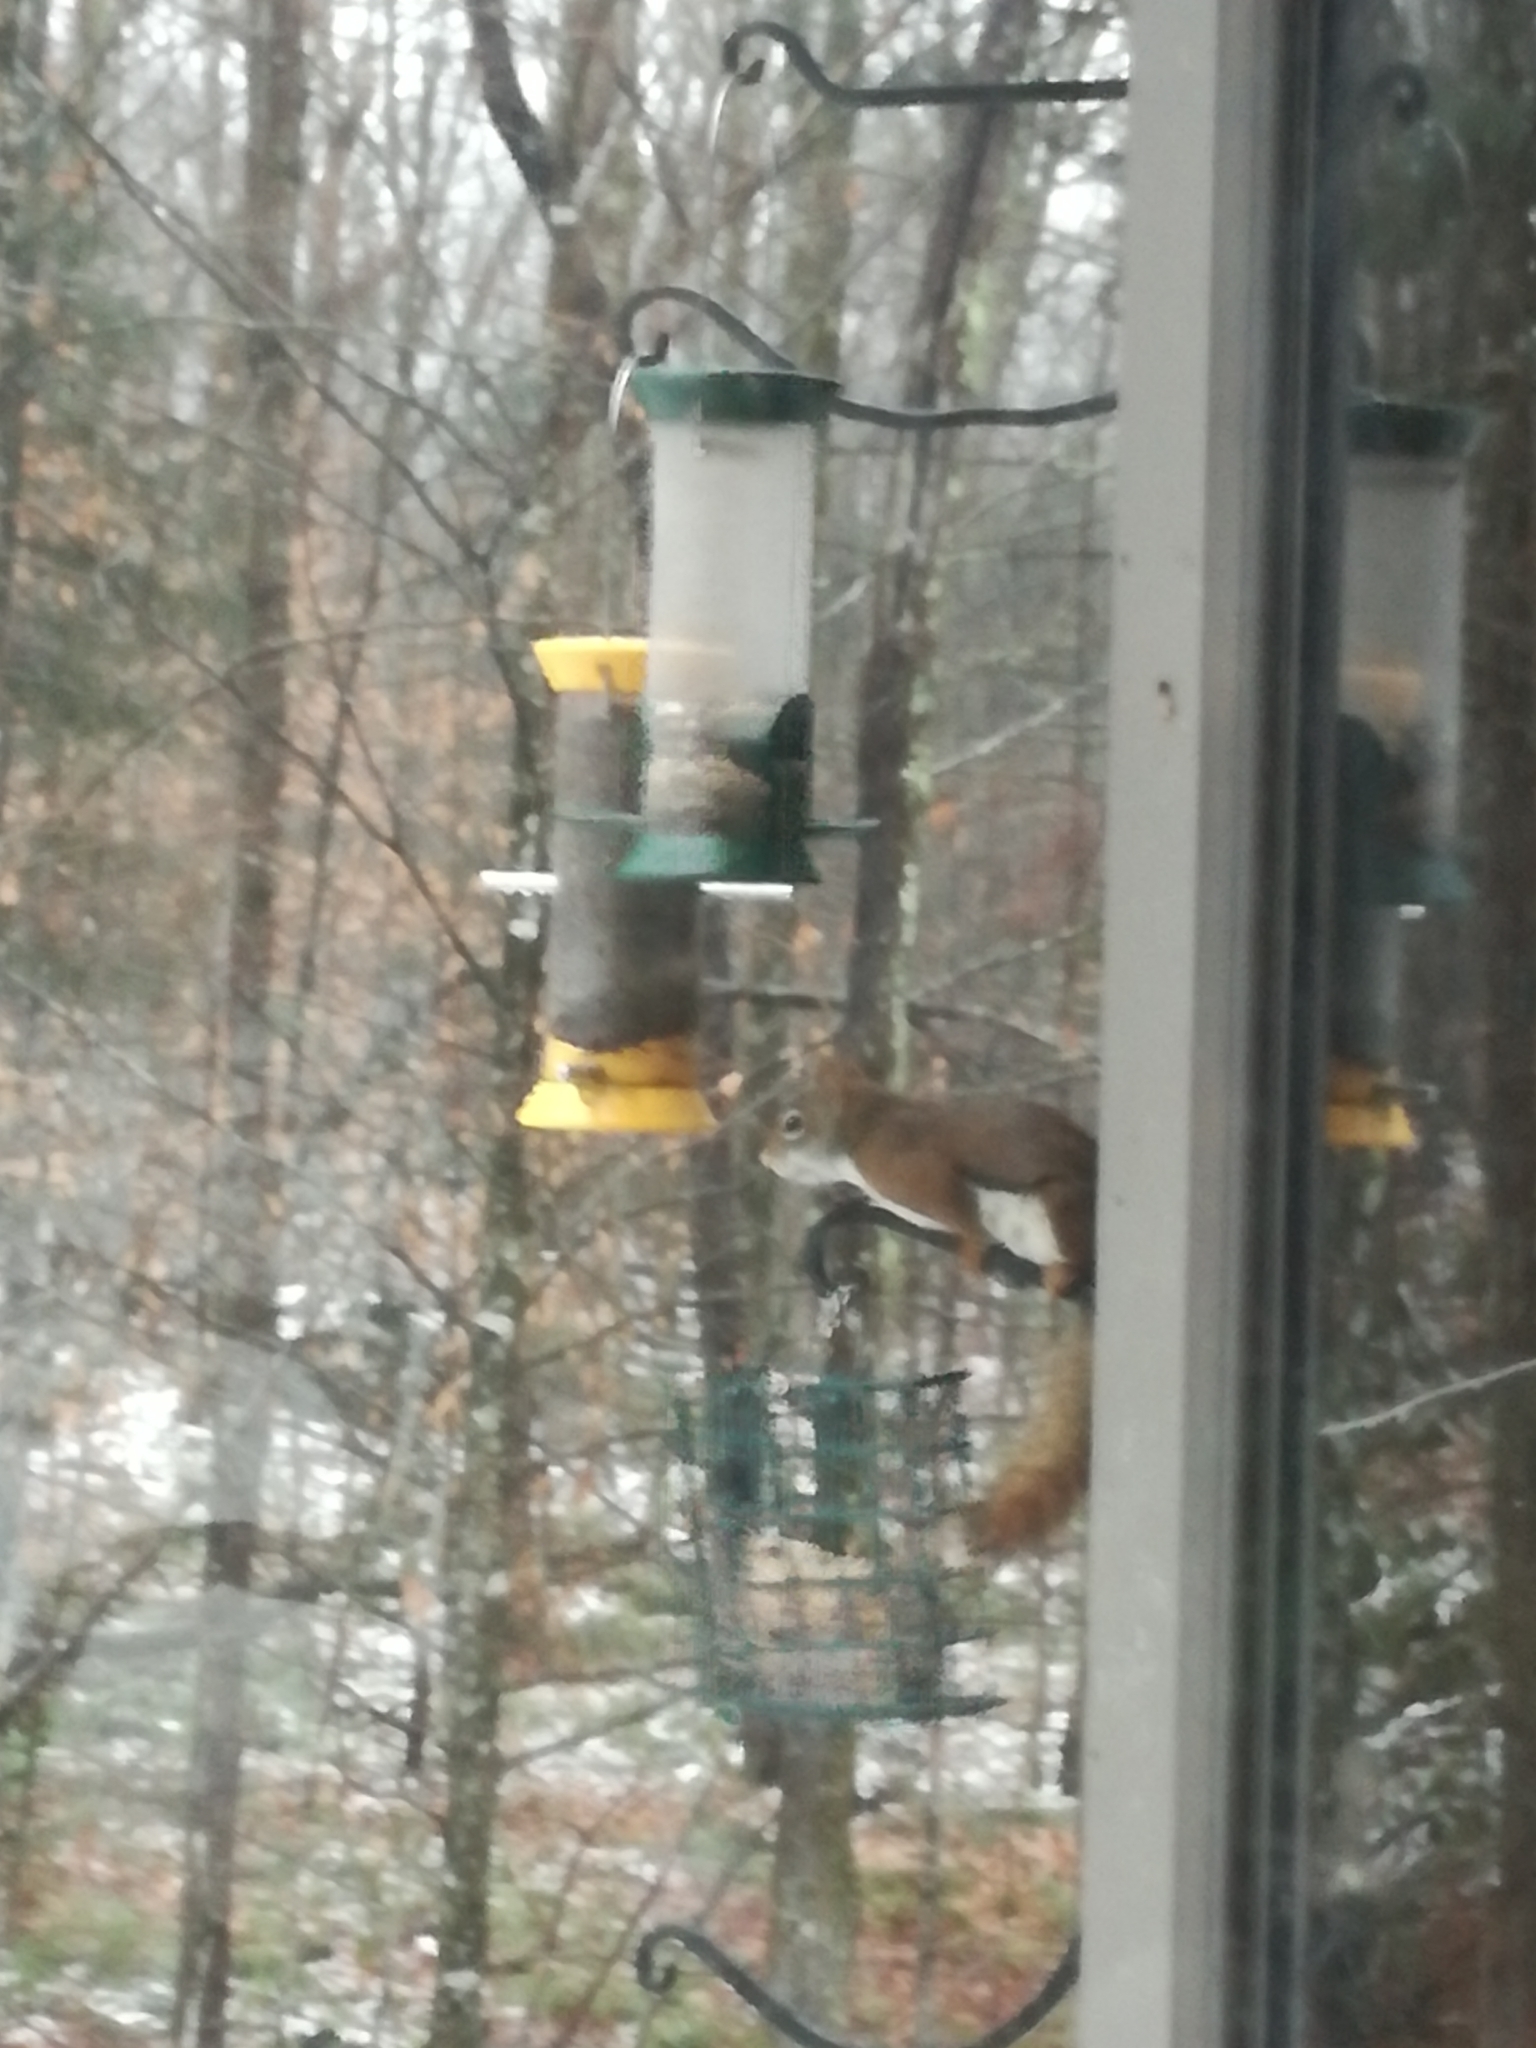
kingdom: Animalia
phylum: Chordata
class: Mammalia
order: Rodentia
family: Sciuridae
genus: Tamiasciurus
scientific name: Tamiasciurus hudsonicus
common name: Red squirrel
